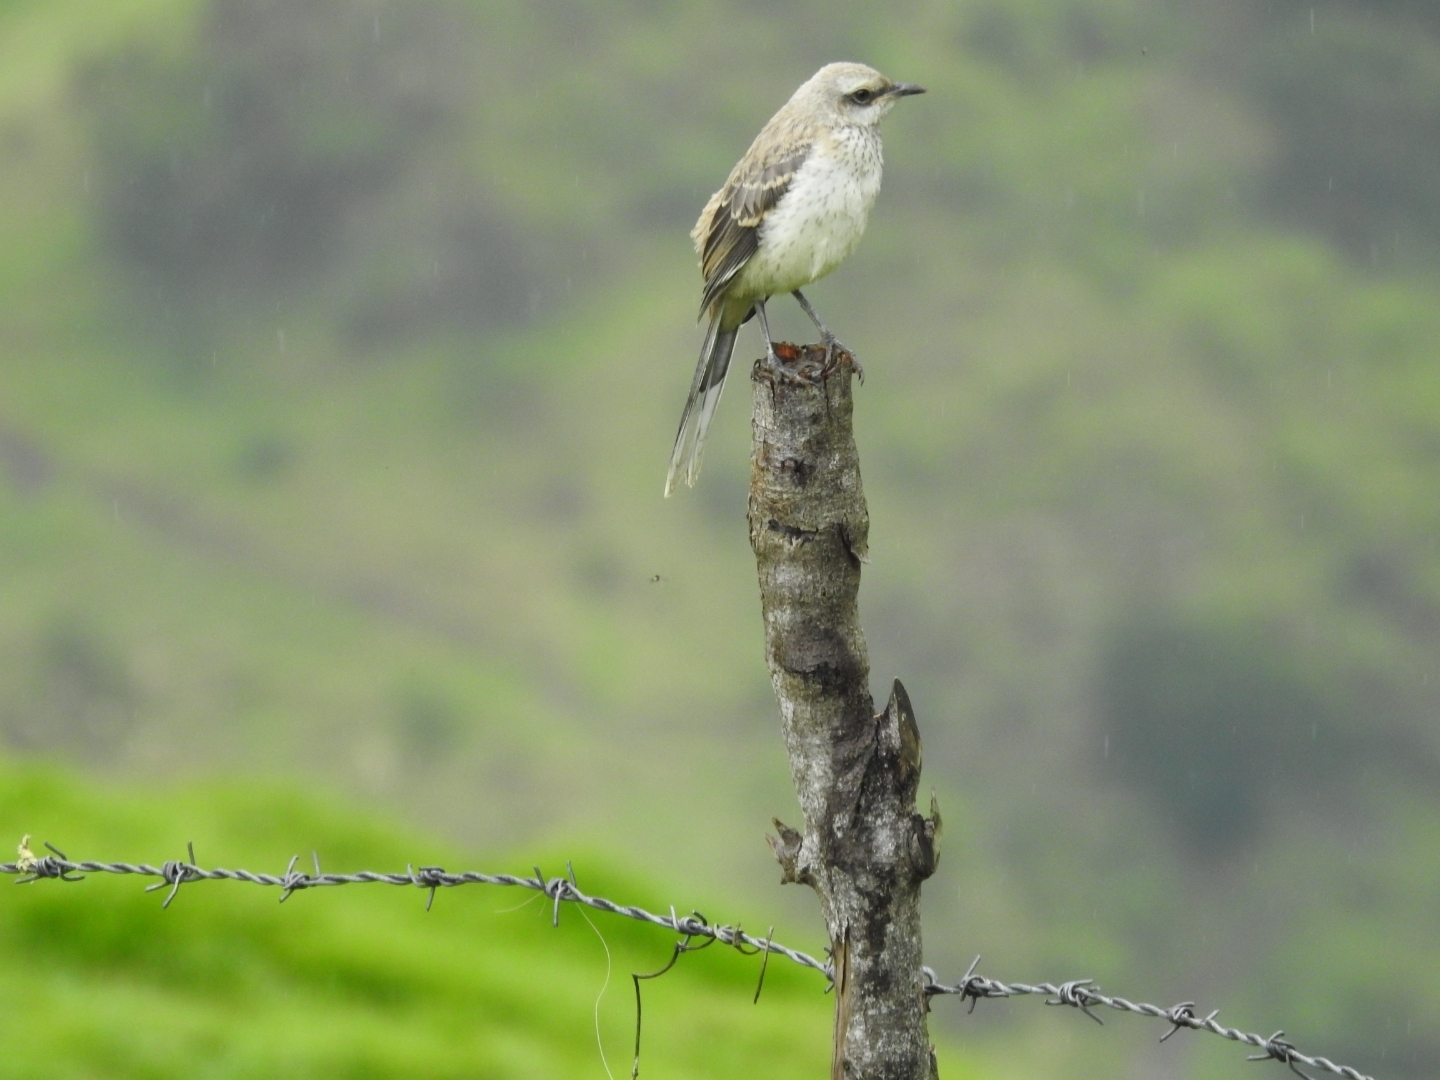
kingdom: Animalia
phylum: Chordata
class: Aves
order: Passeriformes
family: Mimidae
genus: Mimus
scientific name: Mimus gilvus
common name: Tropical mockingbird
